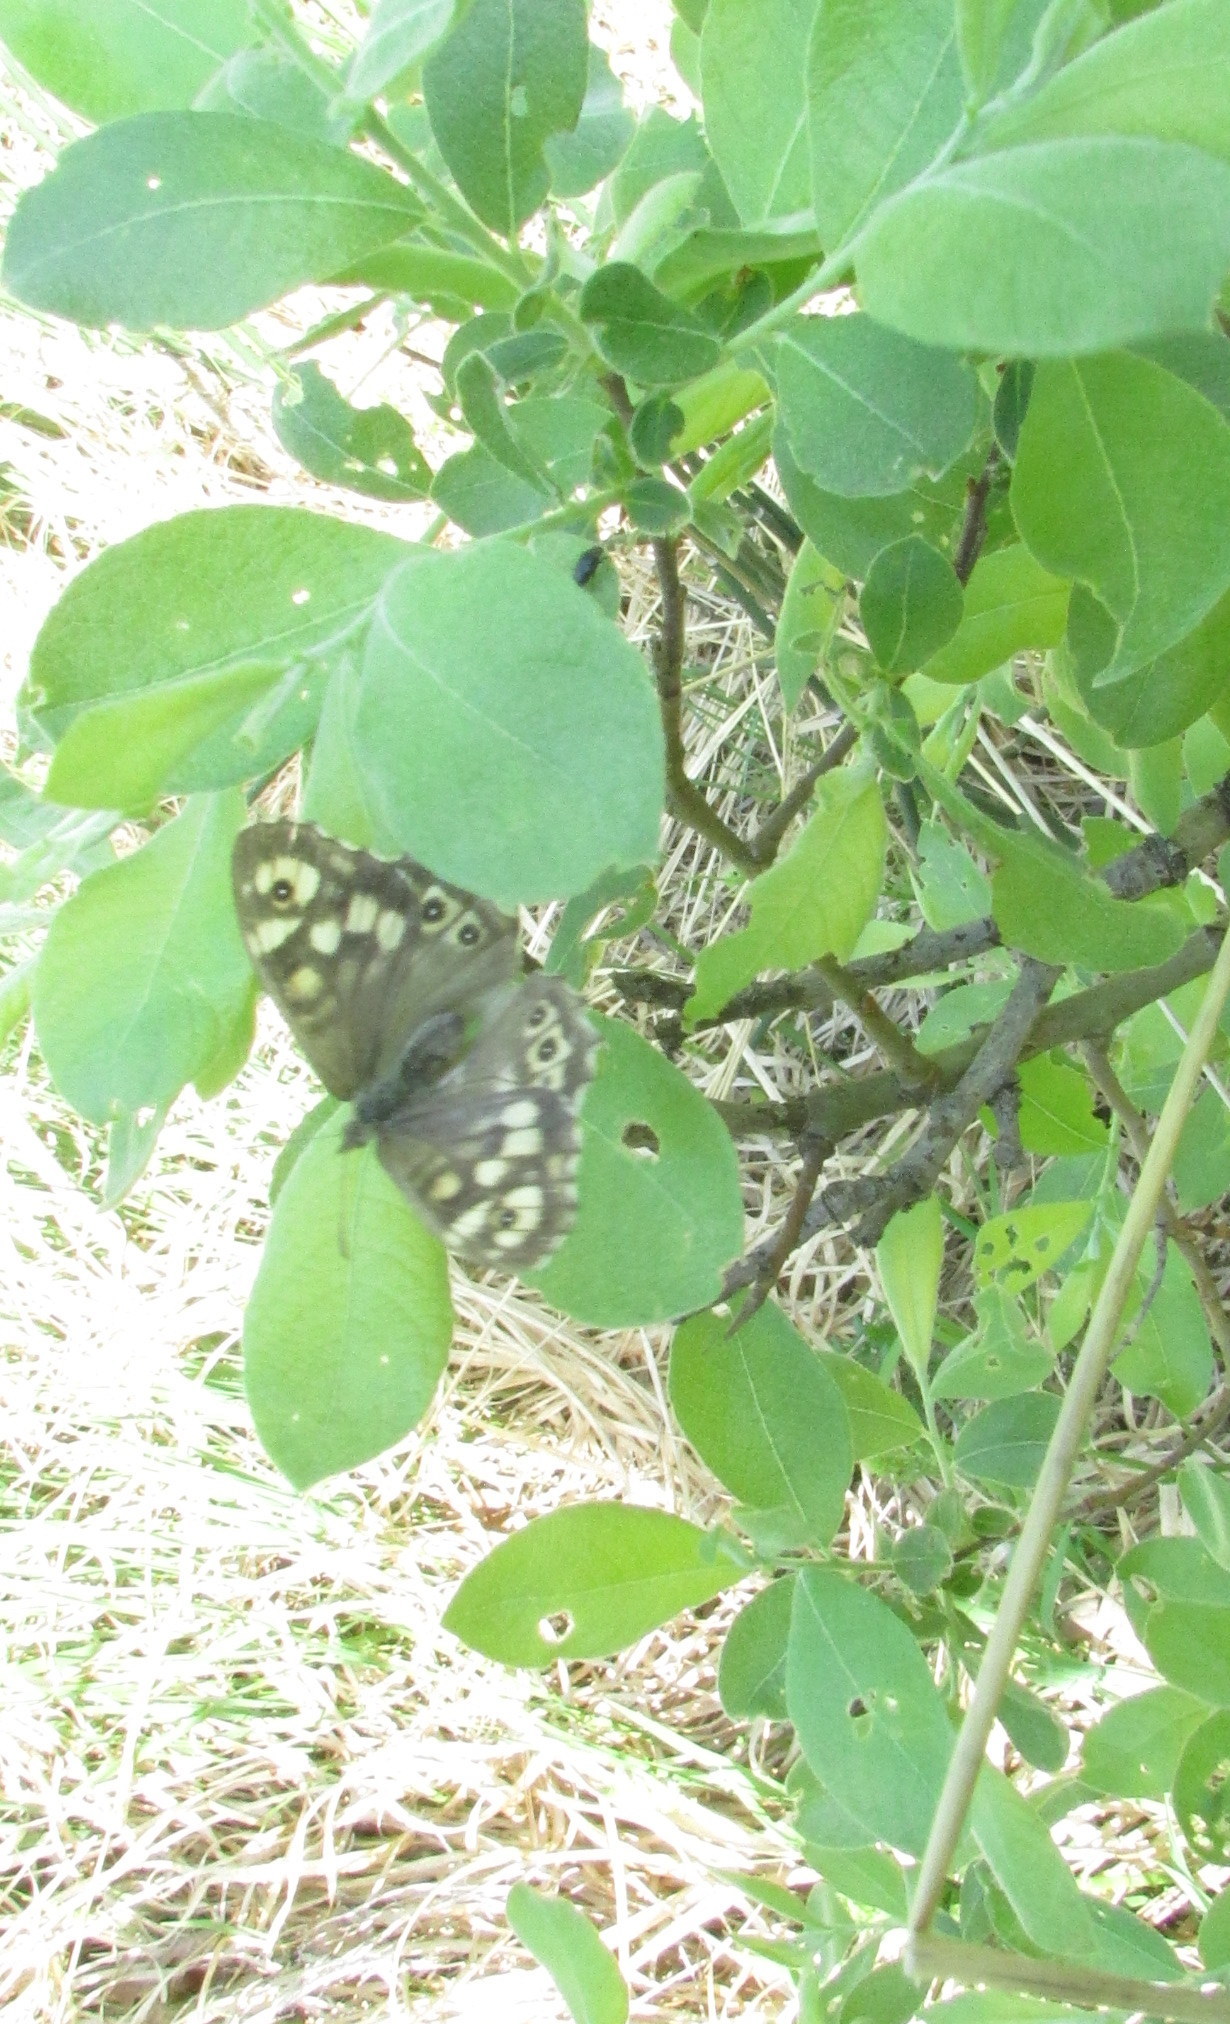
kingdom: Animalia
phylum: Arthropoda
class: Insecta
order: Lepidoptera
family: Nymphalidae
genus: Pararge
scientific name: Pararge aegeria
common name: Speckled wood
